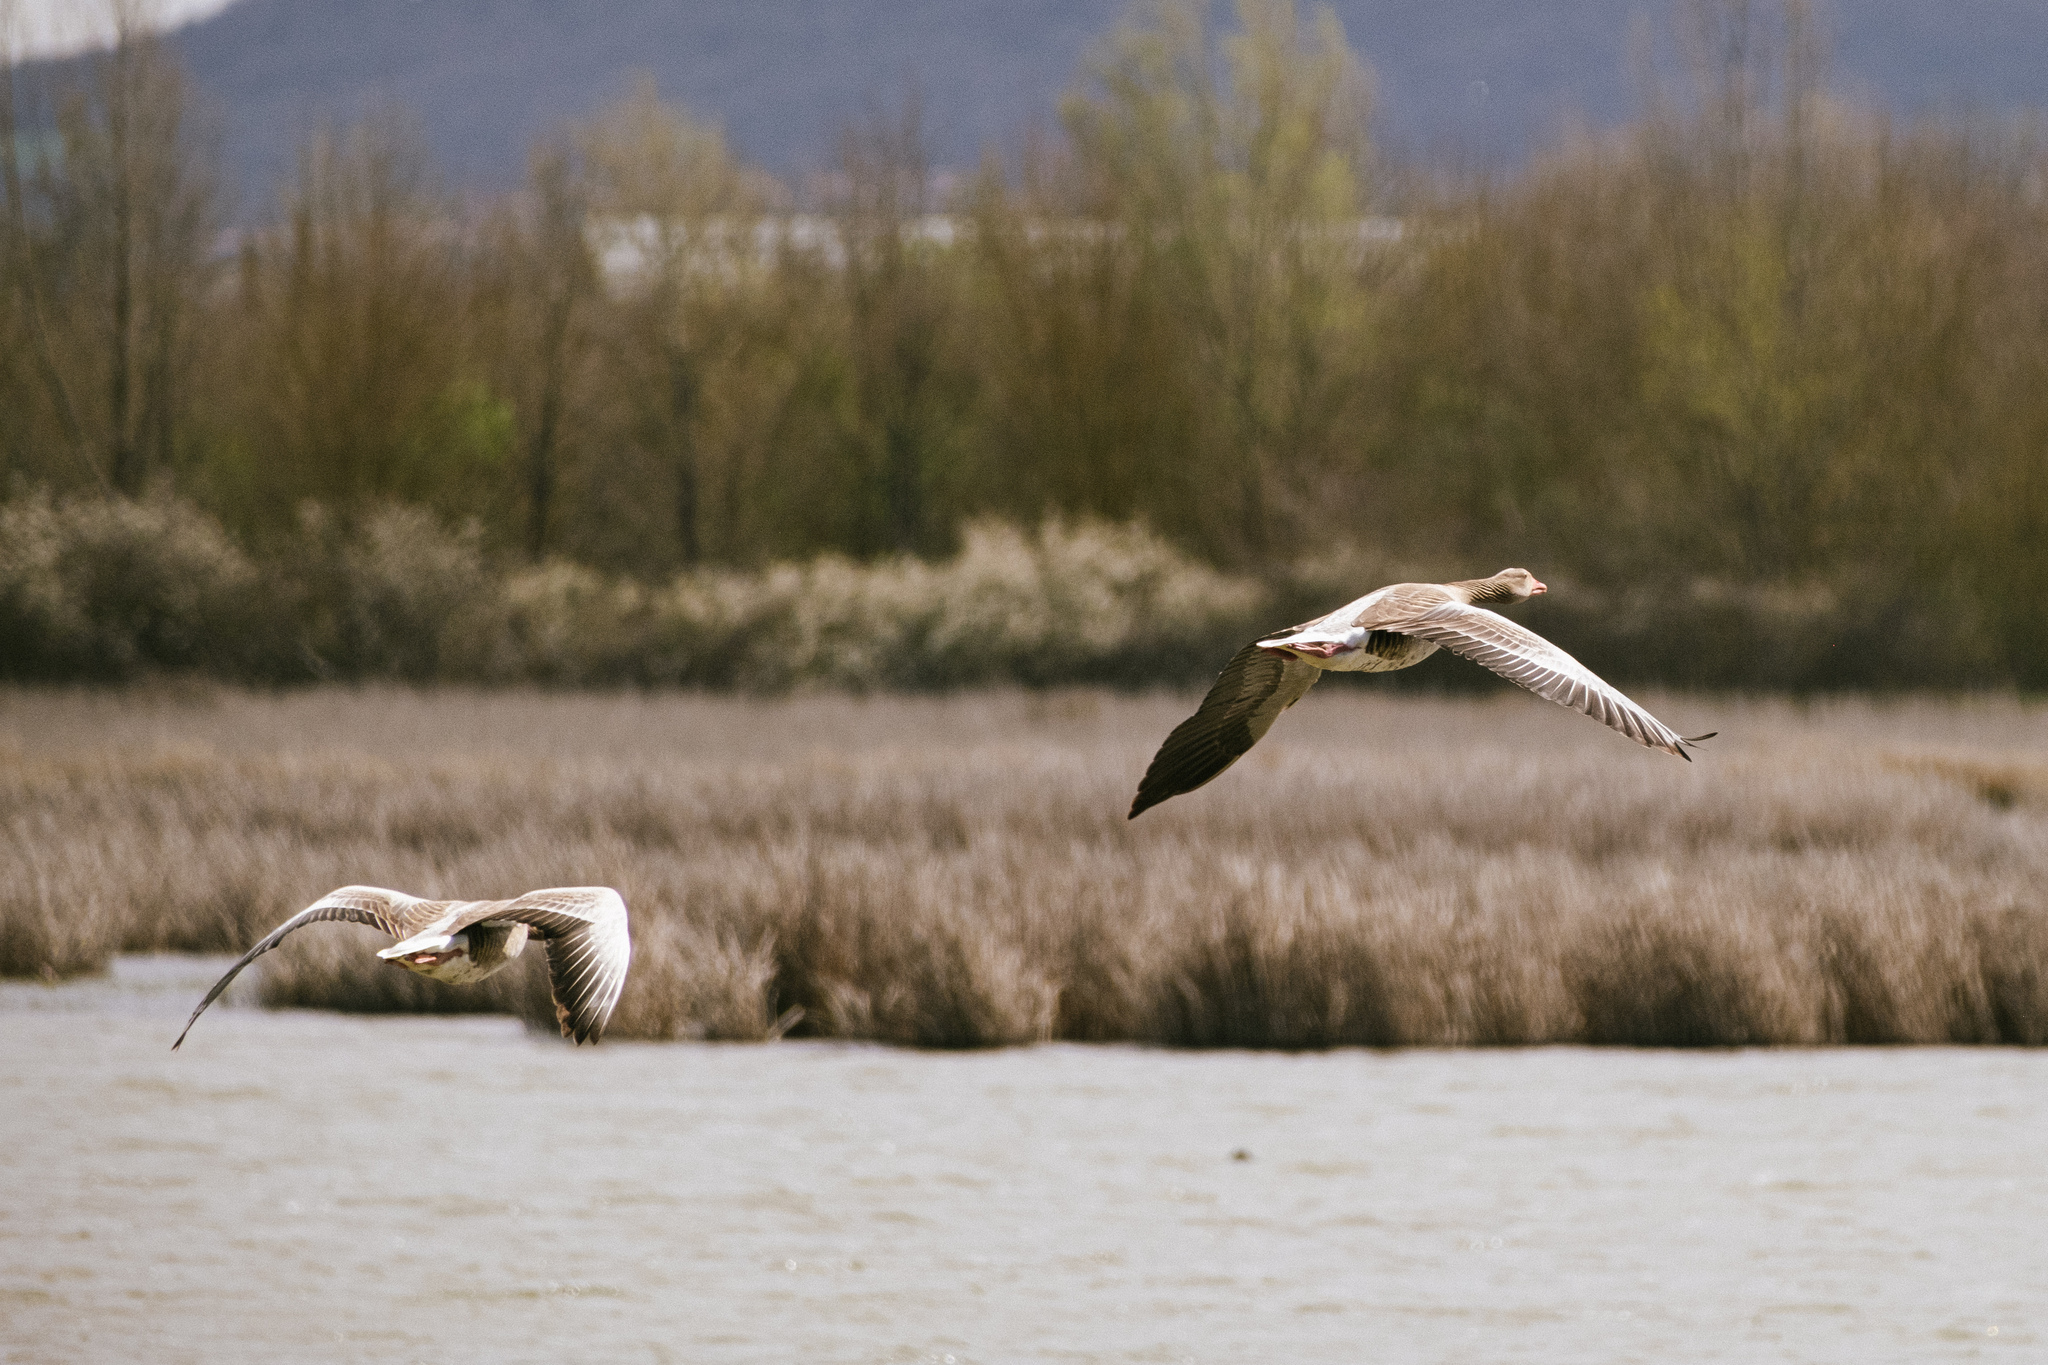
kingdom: Animalia
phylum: Chordata
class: Aves
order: Anseriformes
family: Anatidae
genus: Anser
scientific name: Anser anser
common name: Greylag goose
